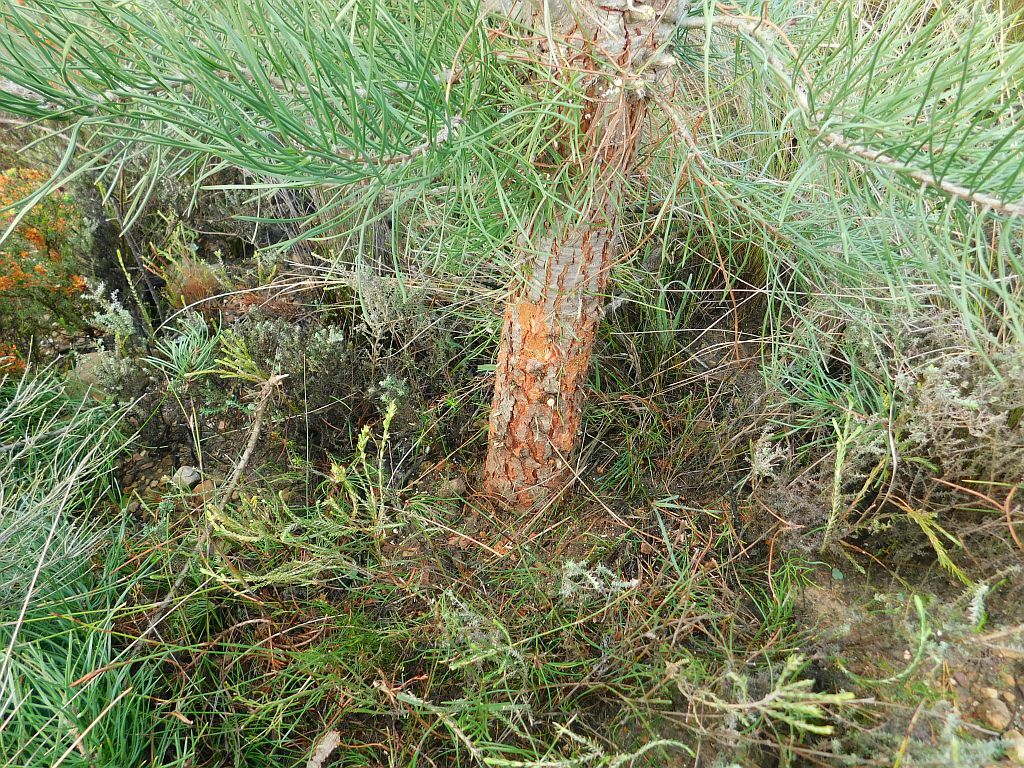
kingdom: Plantae
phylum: Tracheophyta
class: Pinopsida
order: Pinales
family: Pinaceae
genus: Pinus
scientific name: Pinus pinaster
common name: Maritime pine
